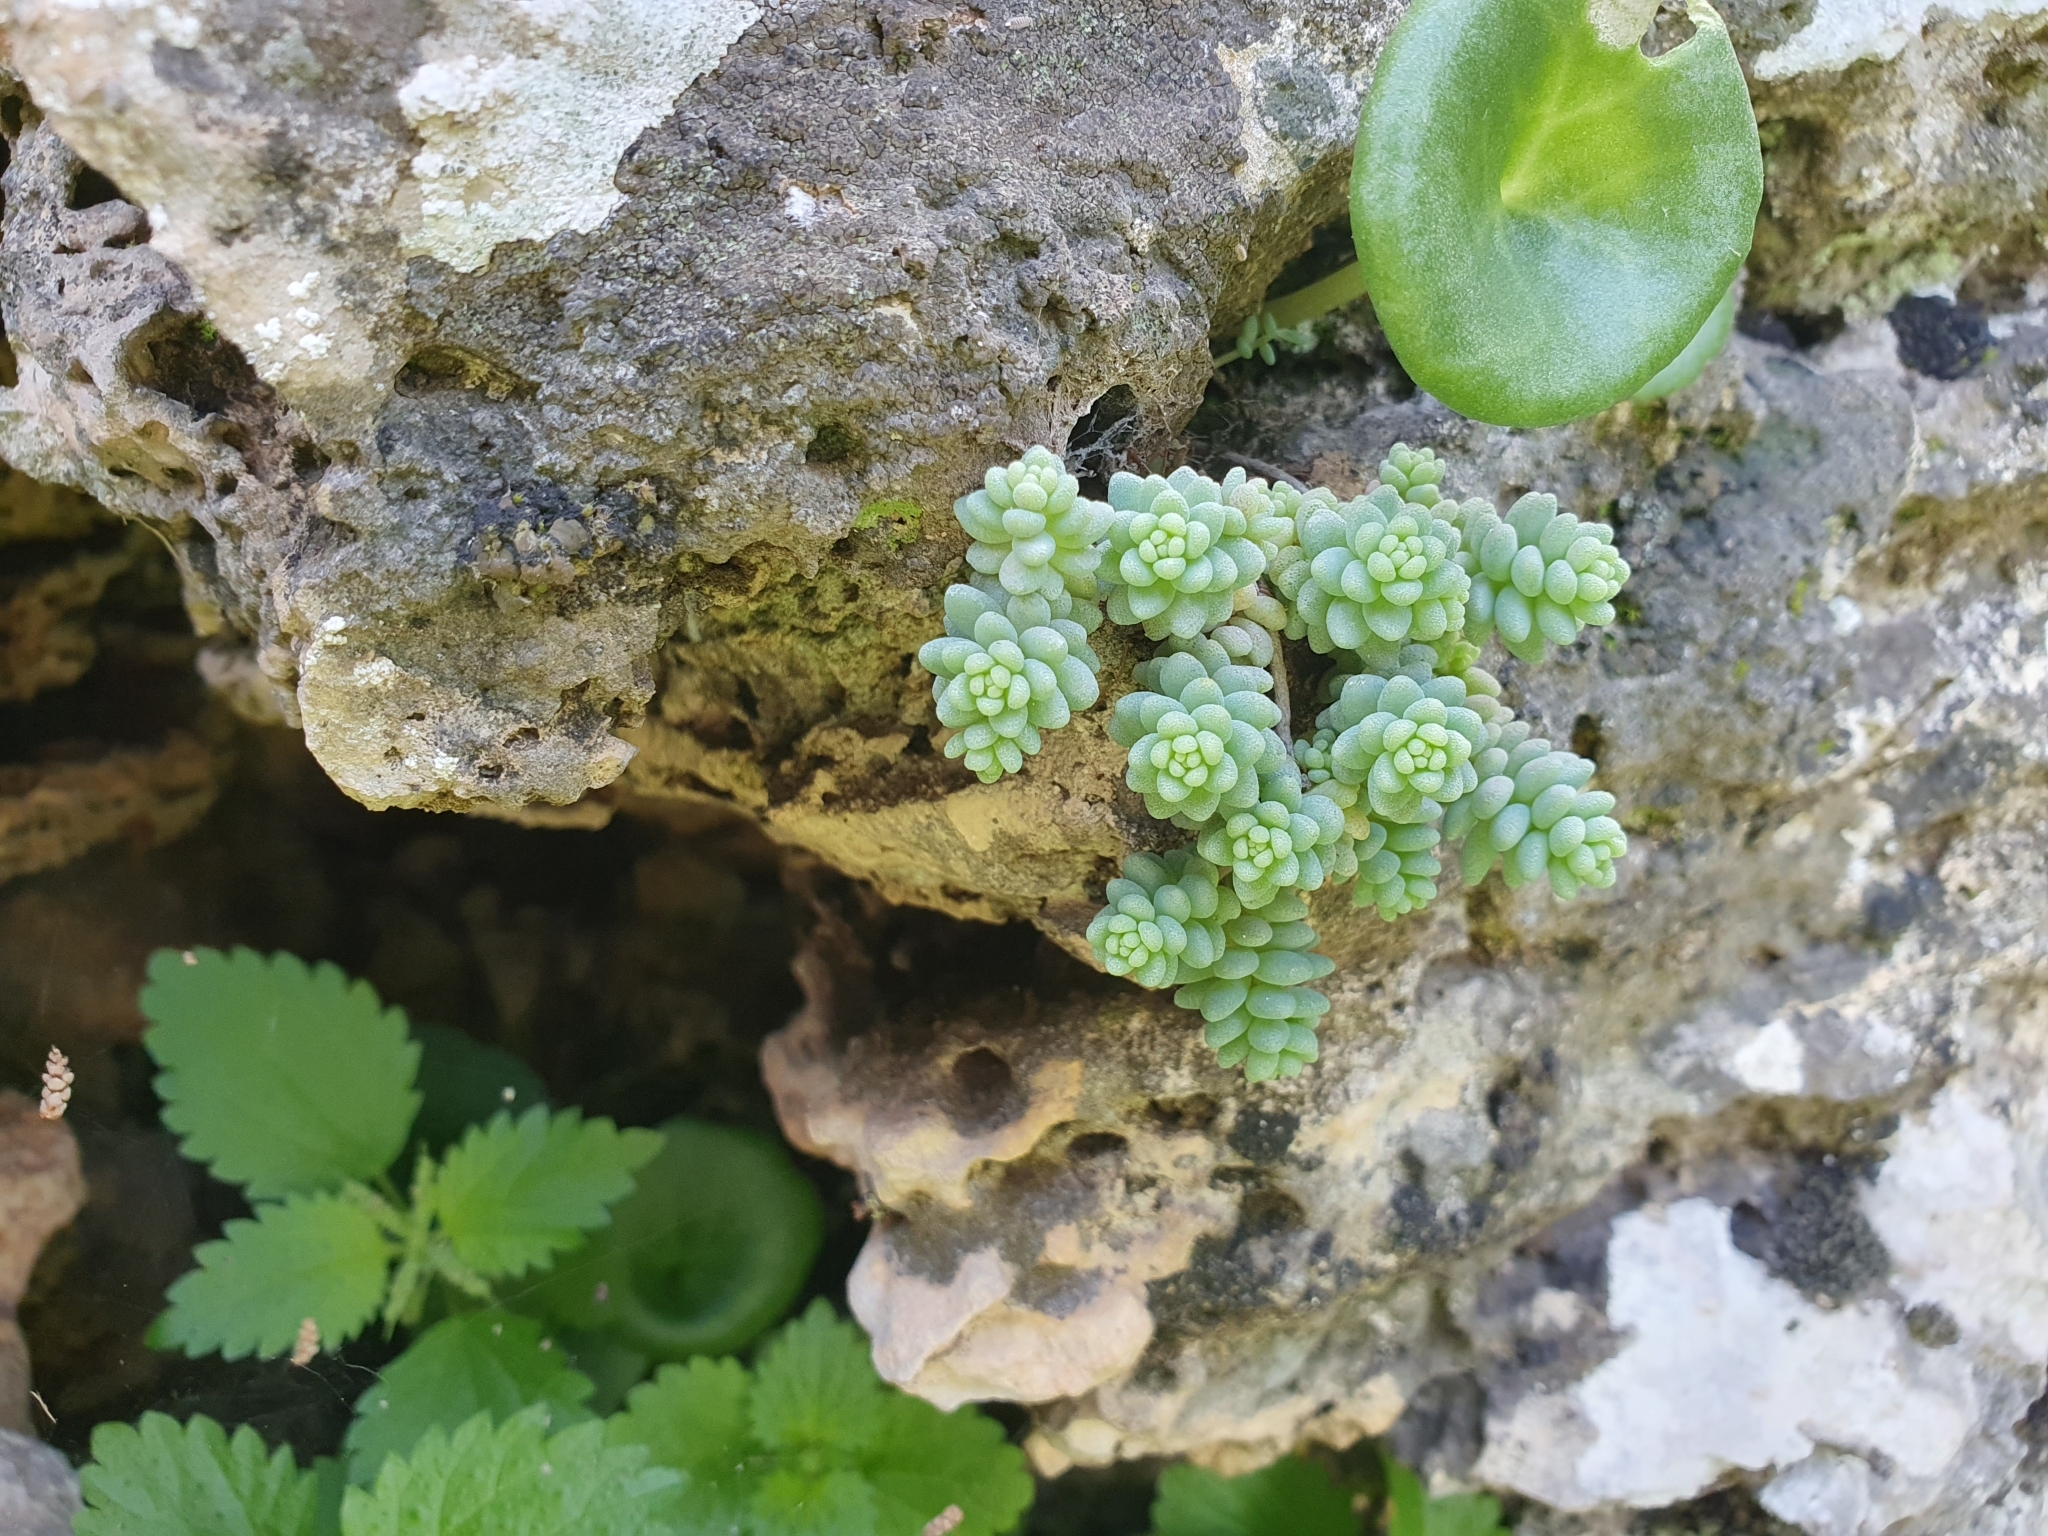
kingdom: Plantae
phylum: Tracheophyta
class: Magnoliopsida
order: Saxifragales
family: Crassulaceae
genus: Sedum
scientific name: Sedum dasyphyllum
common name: Thick-leaf stonecrop
